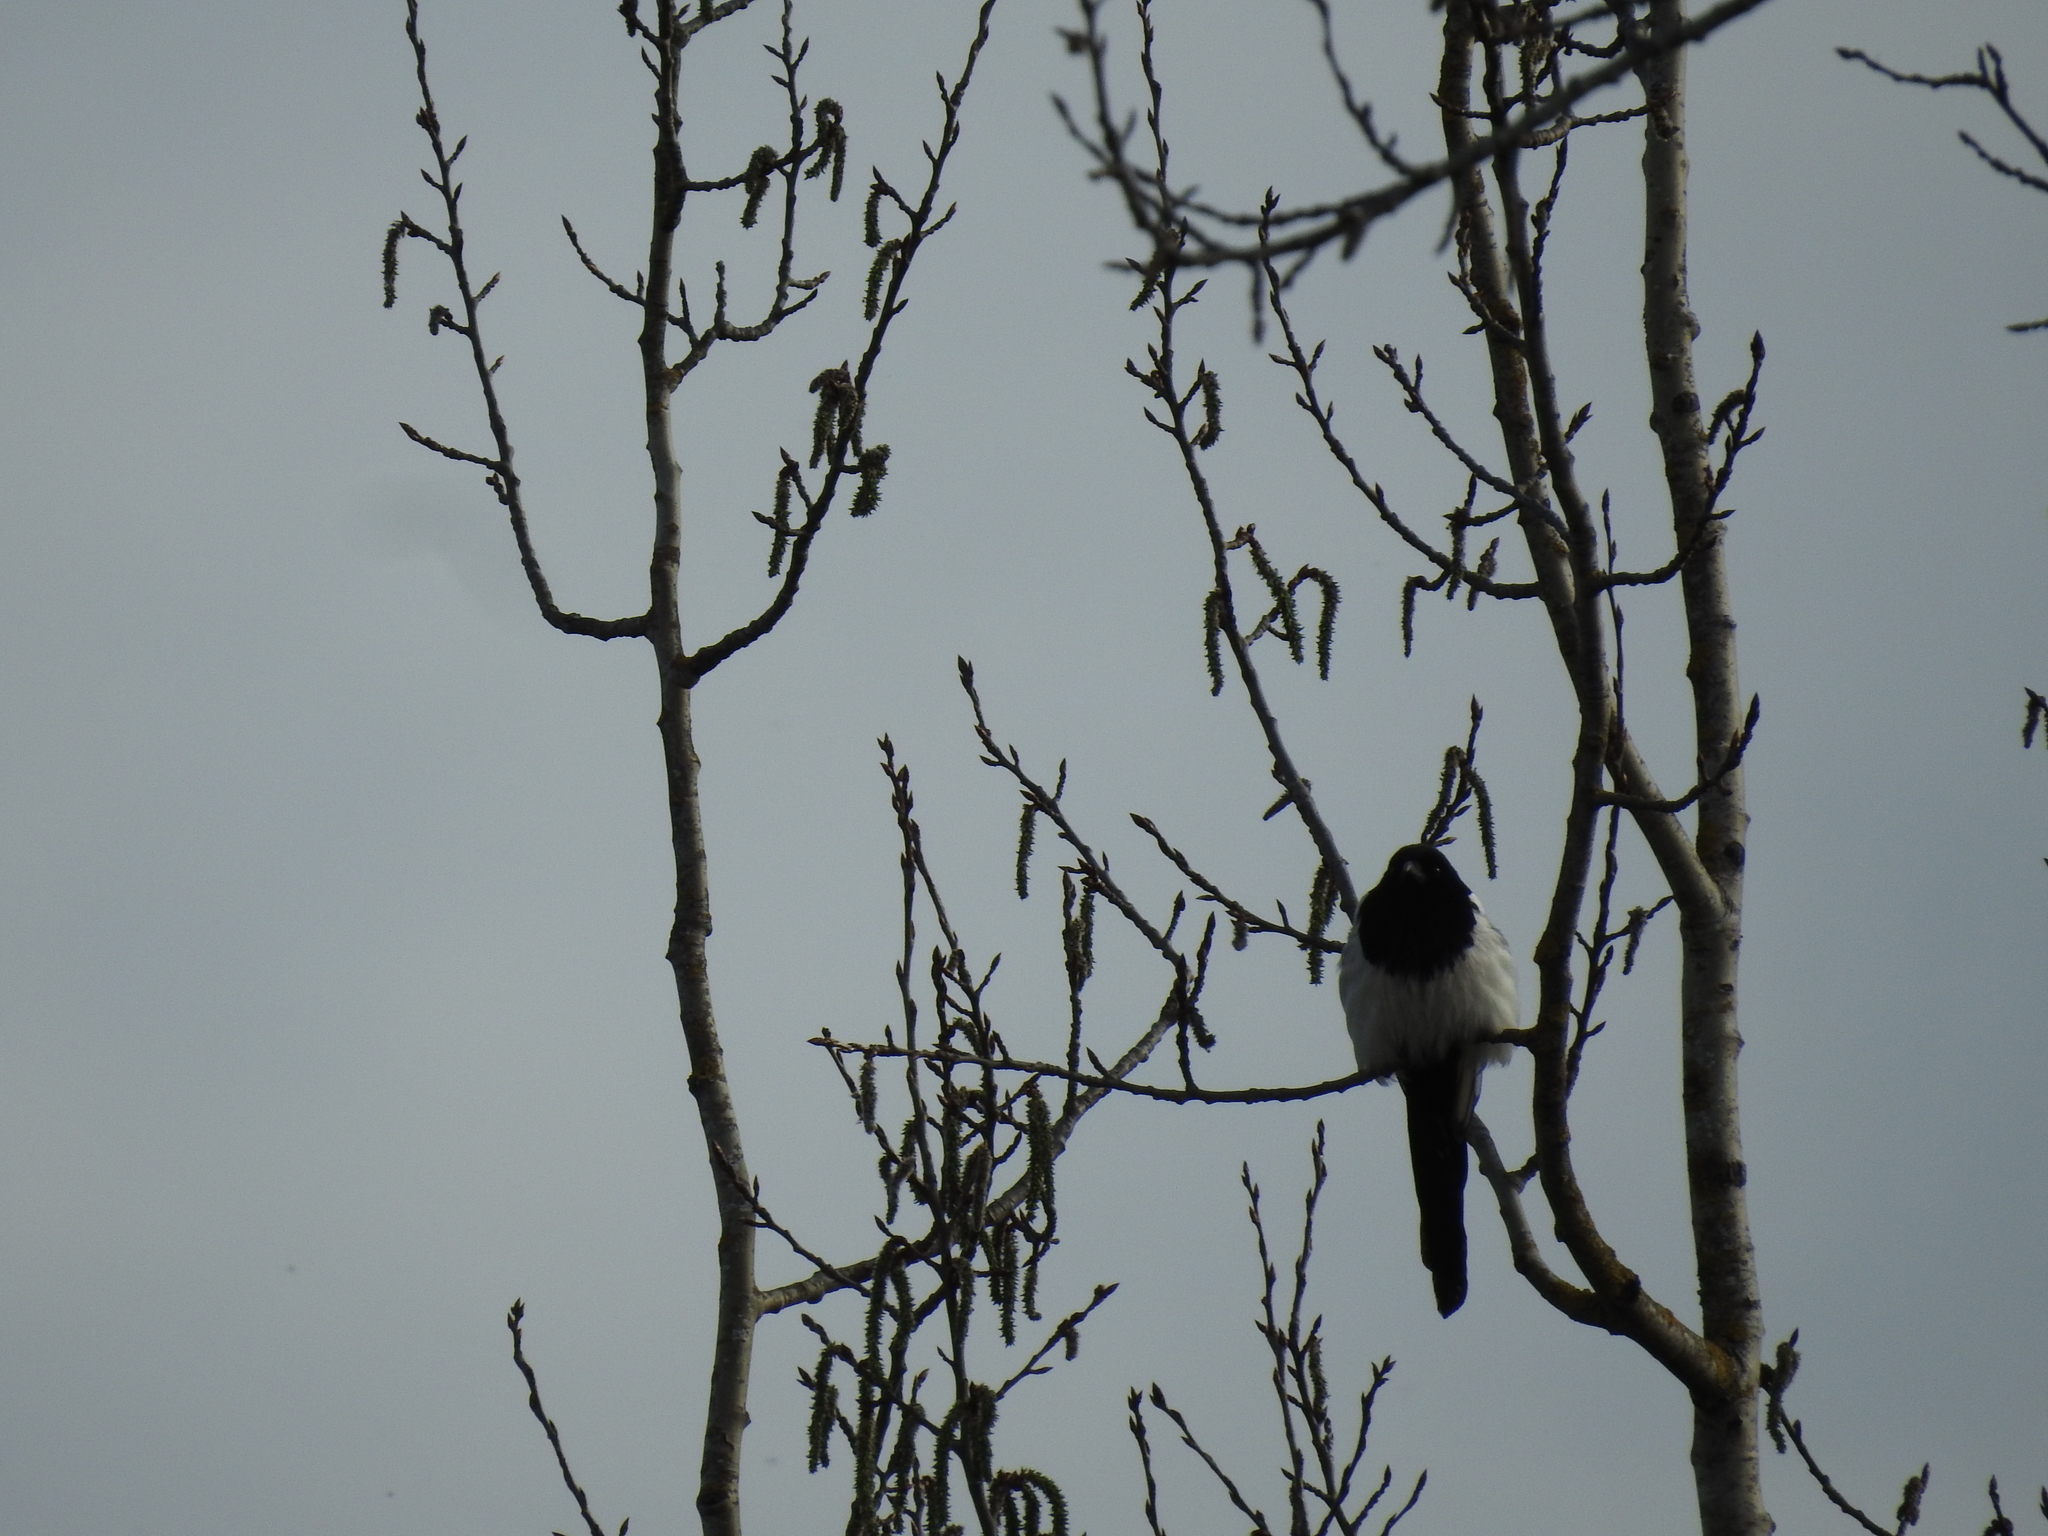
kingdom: Animalia
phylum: Chordata
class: Aves
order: Passeriformes
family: Corvidae
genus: Pica
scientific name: Pica pica
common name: Eurasian magpie
